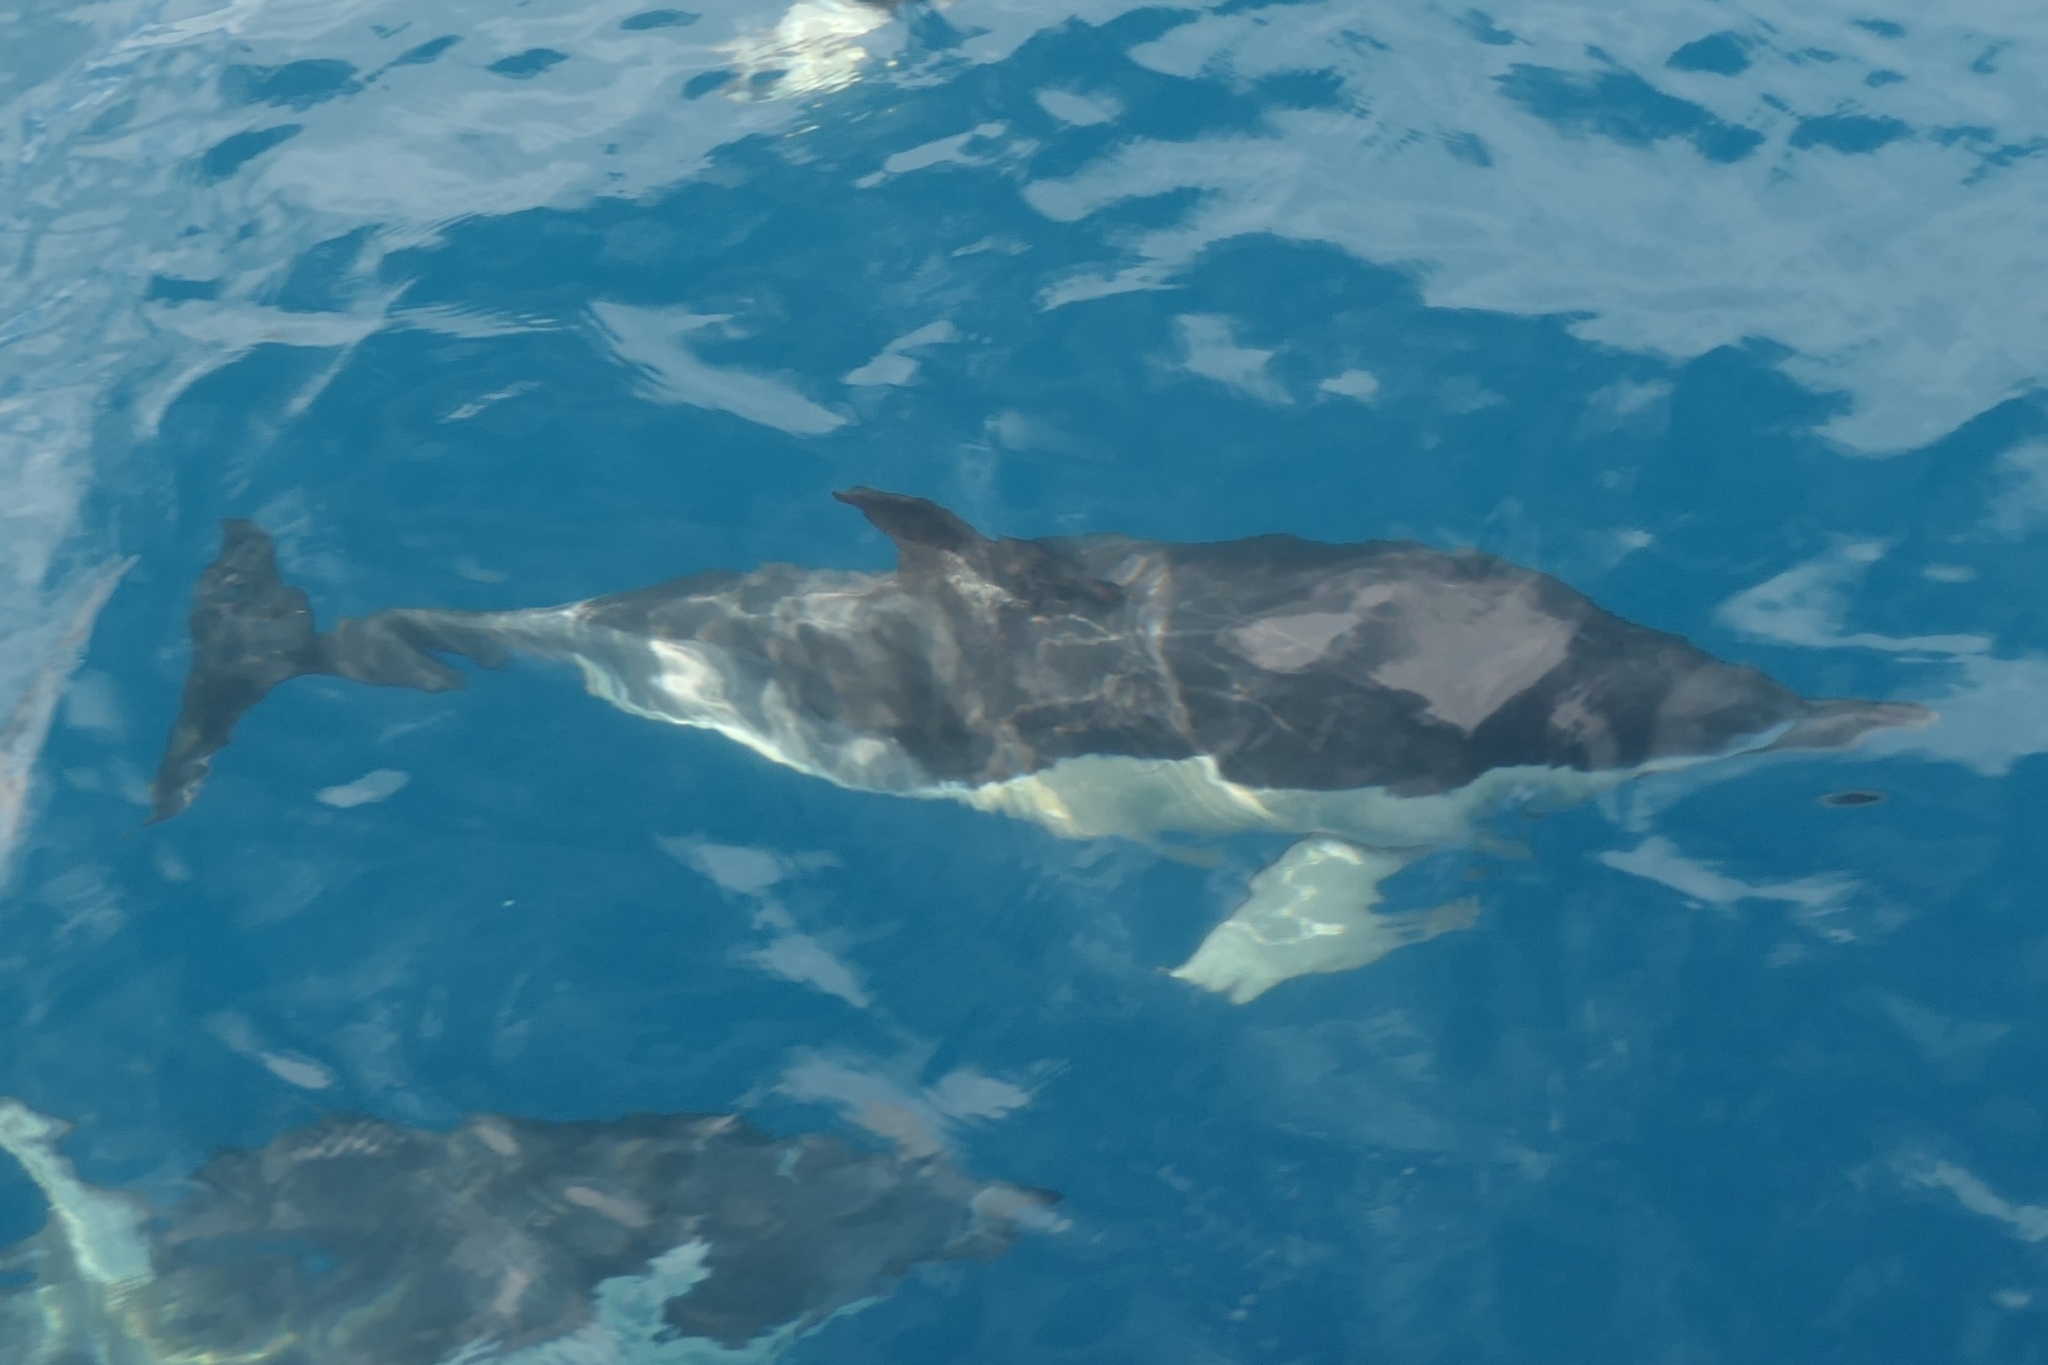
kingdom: Animalia
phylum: Chordata
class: Mammalia
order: Cetacea
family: Delphinidae
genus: Delphinus
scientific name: Delphinus delphis
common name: Common dolphin
